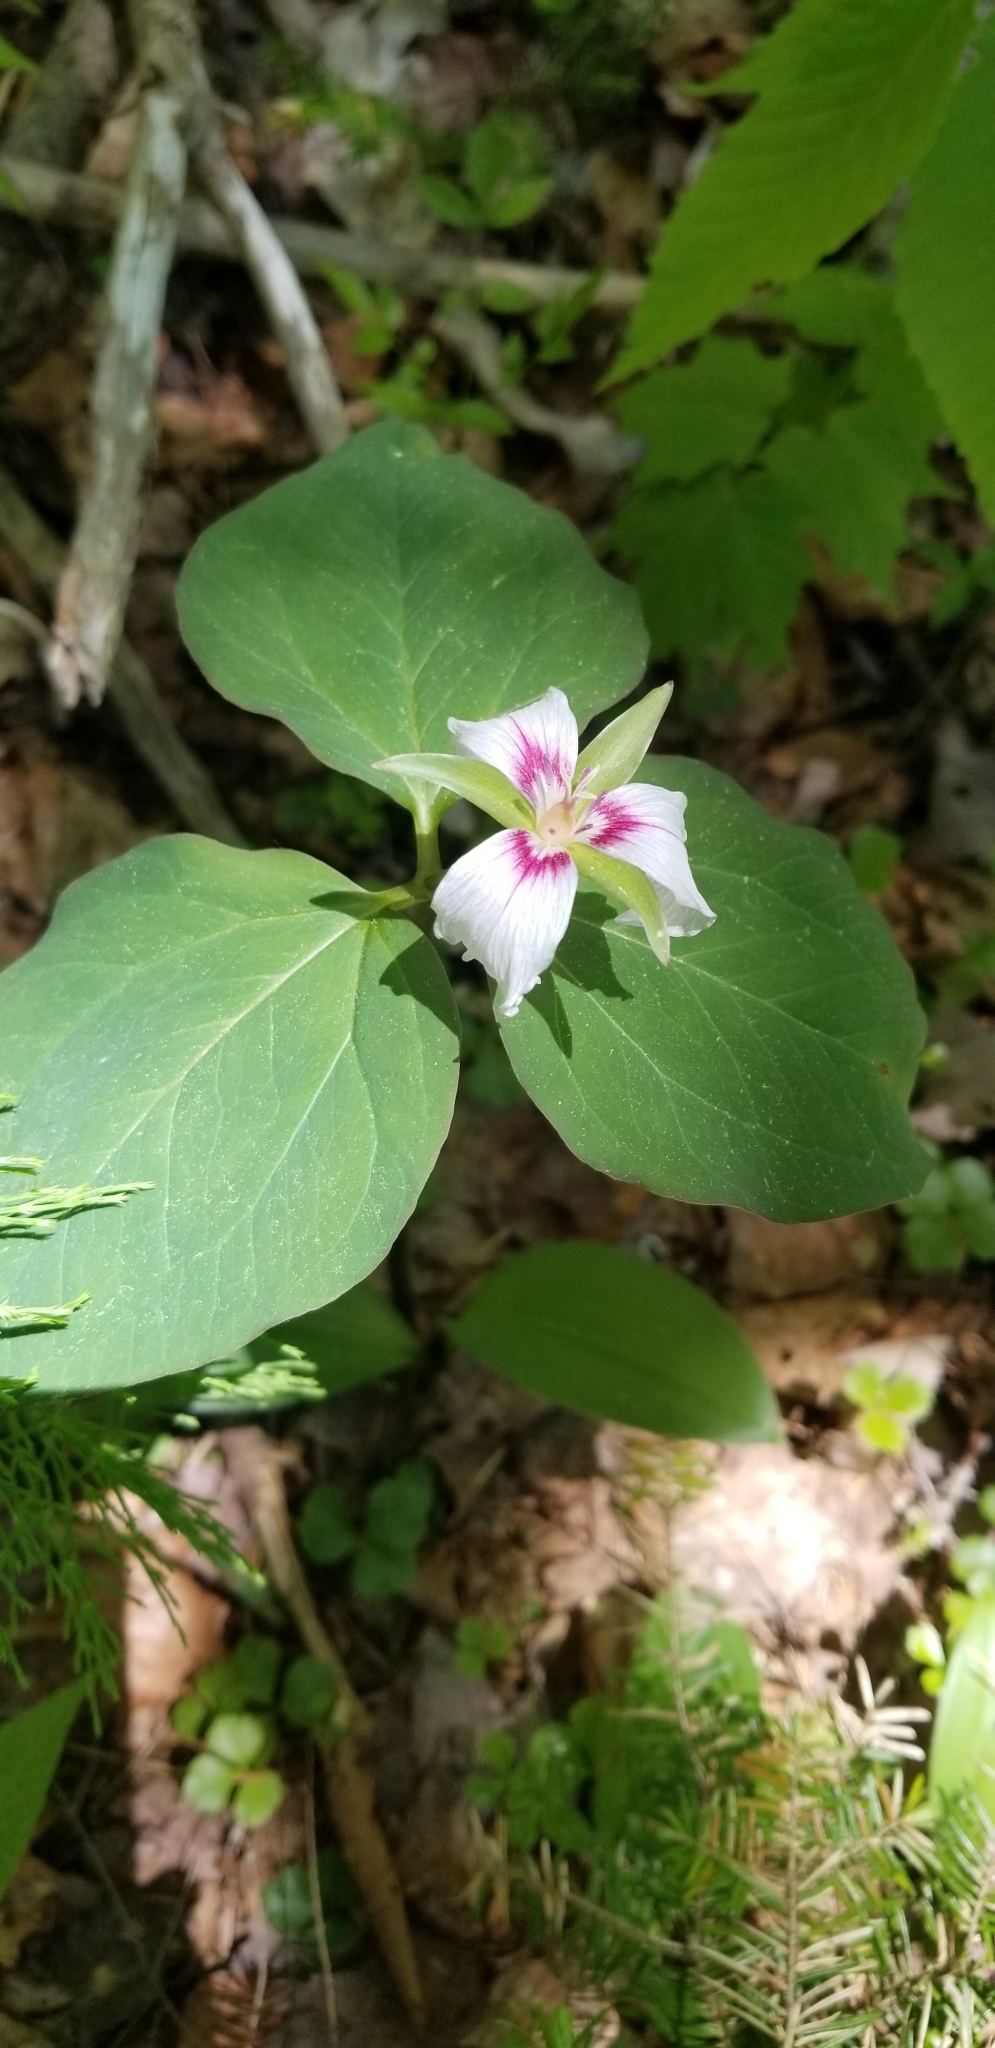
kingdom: Plantae
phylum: Tracheophyta
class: Liliopsida
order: Liliales
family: Melanthiaceae
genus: Trillium
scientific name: Trillium undulatum
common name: Paint trillium
